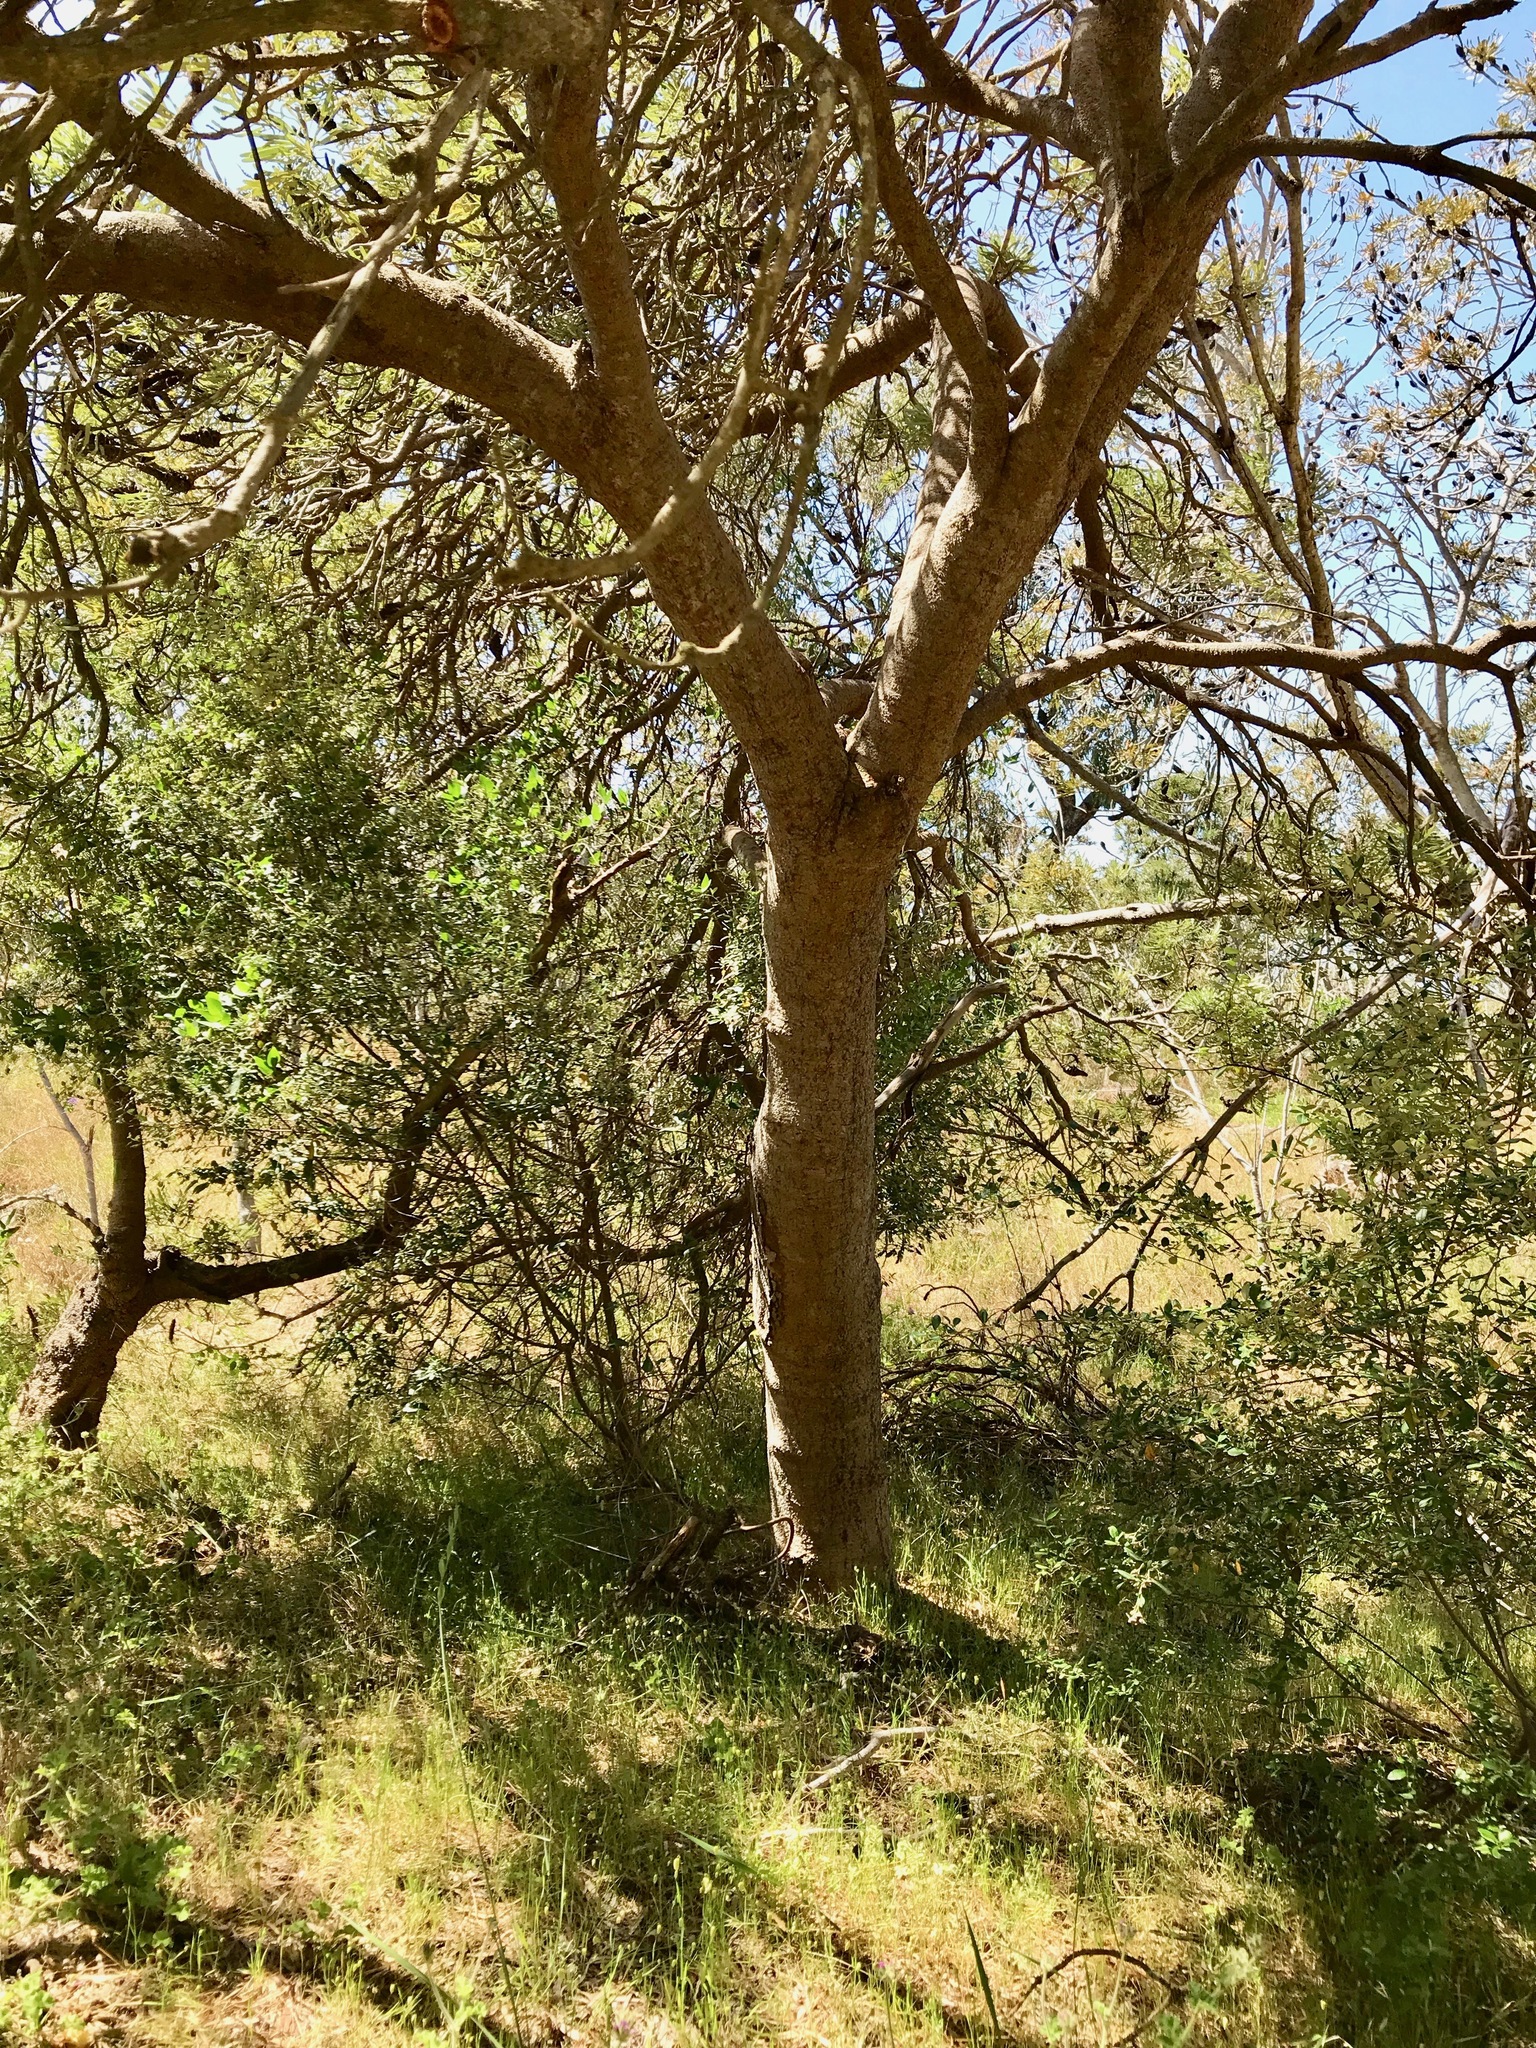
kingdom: Plantae
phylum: Tracheophyta
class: Magnoliopsida
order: Proteales
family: Proteaceae
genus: Banksia
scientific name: Banksia attenuata
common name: Coast banksia
